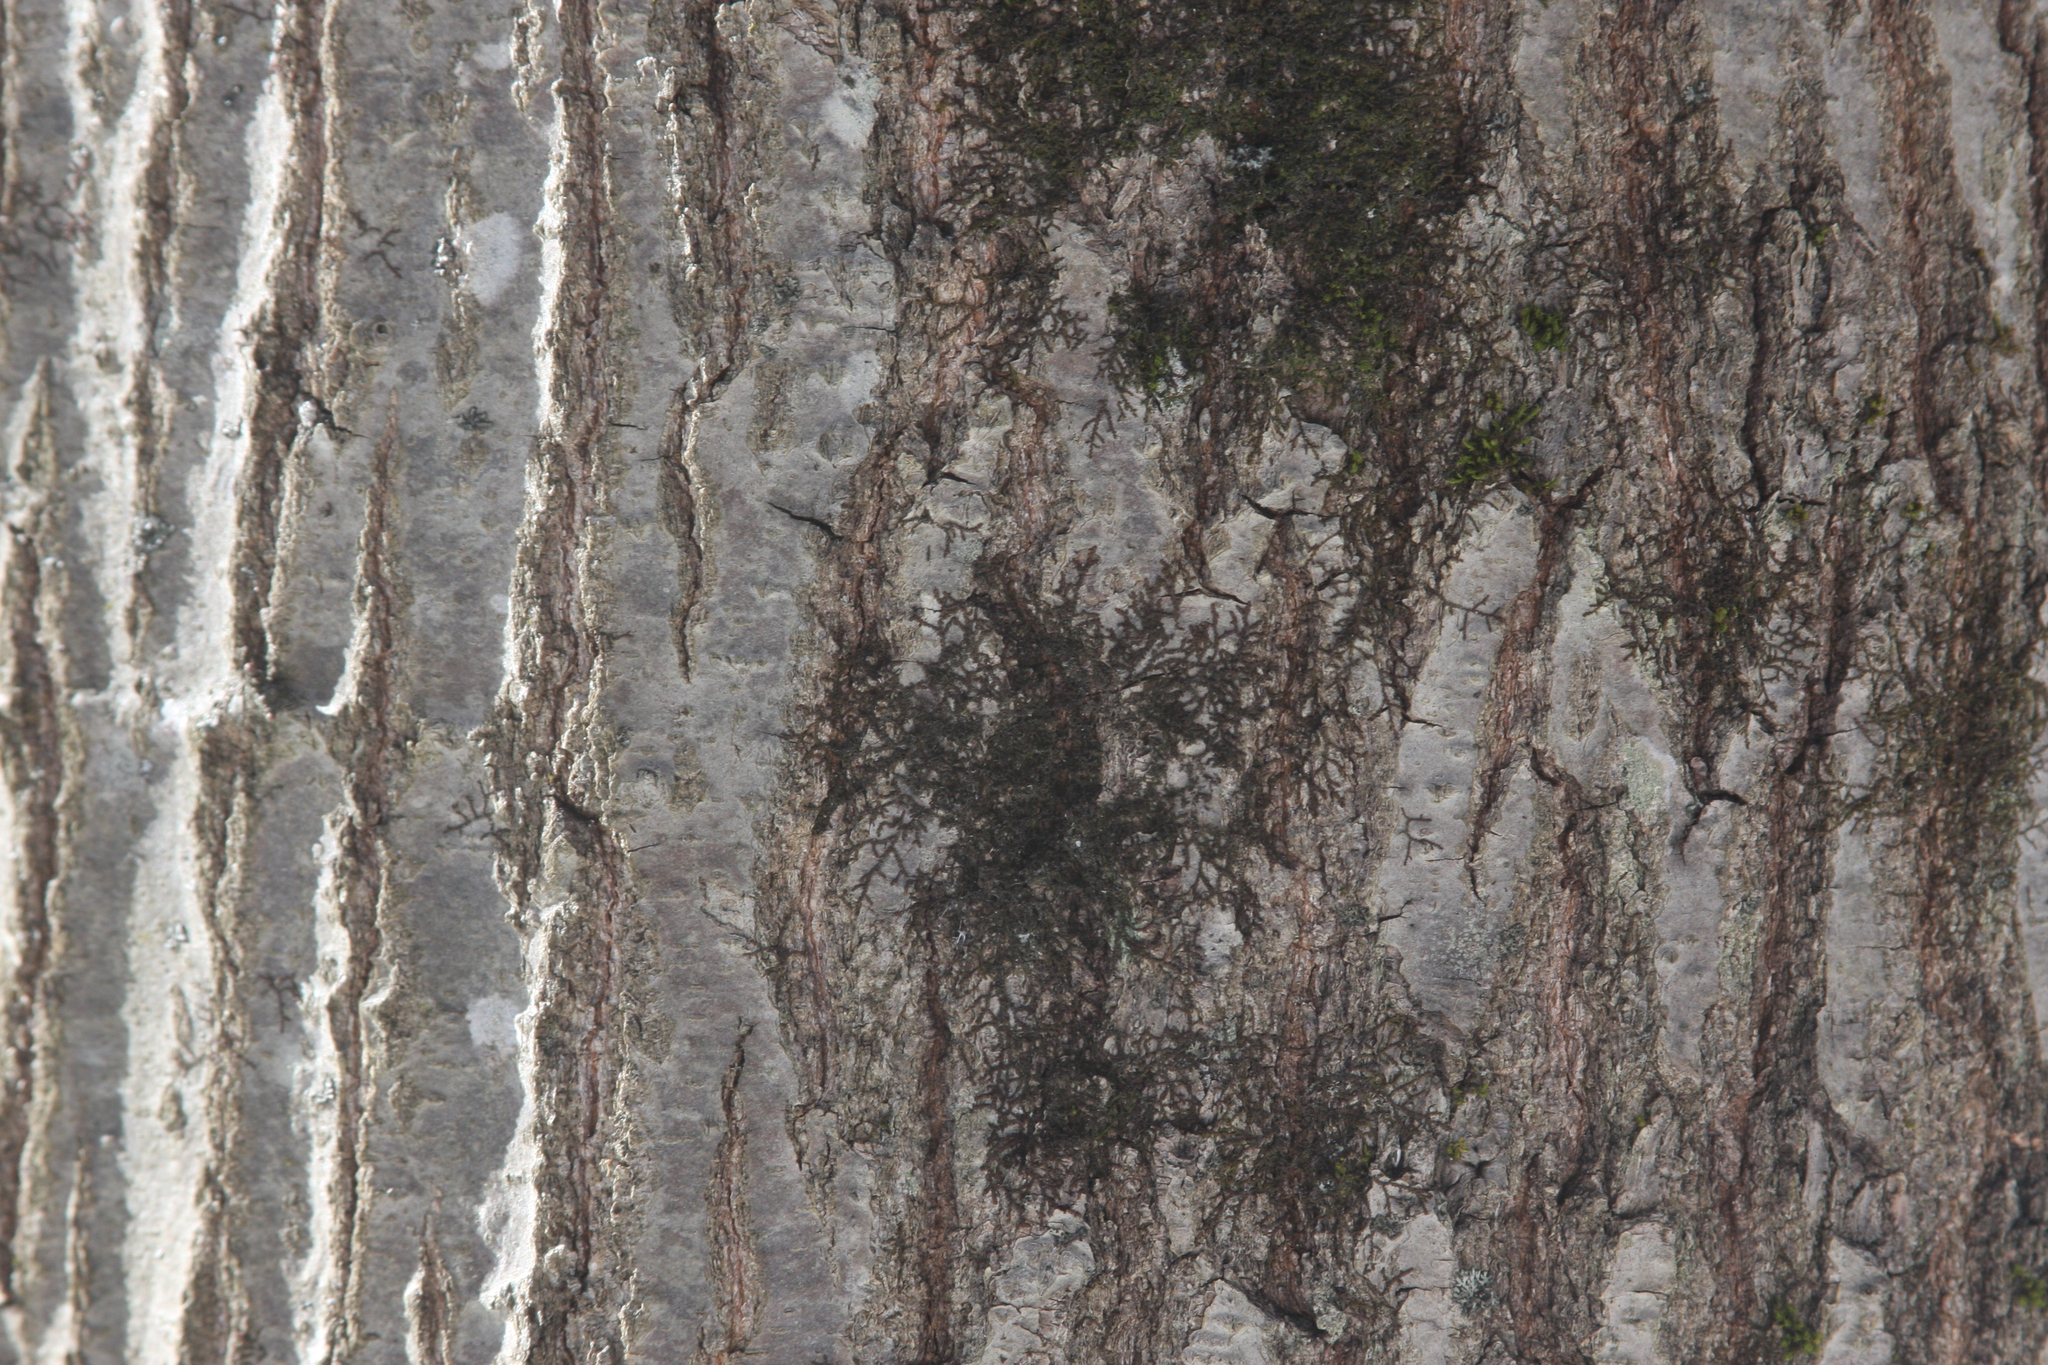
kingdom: Plantae
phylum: Marchantiophyta
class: Jungermanniopsida
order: Porellales
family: Frullaniaceae
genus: Frullania
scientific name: Frullania eboracensis
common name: New york scalewort
